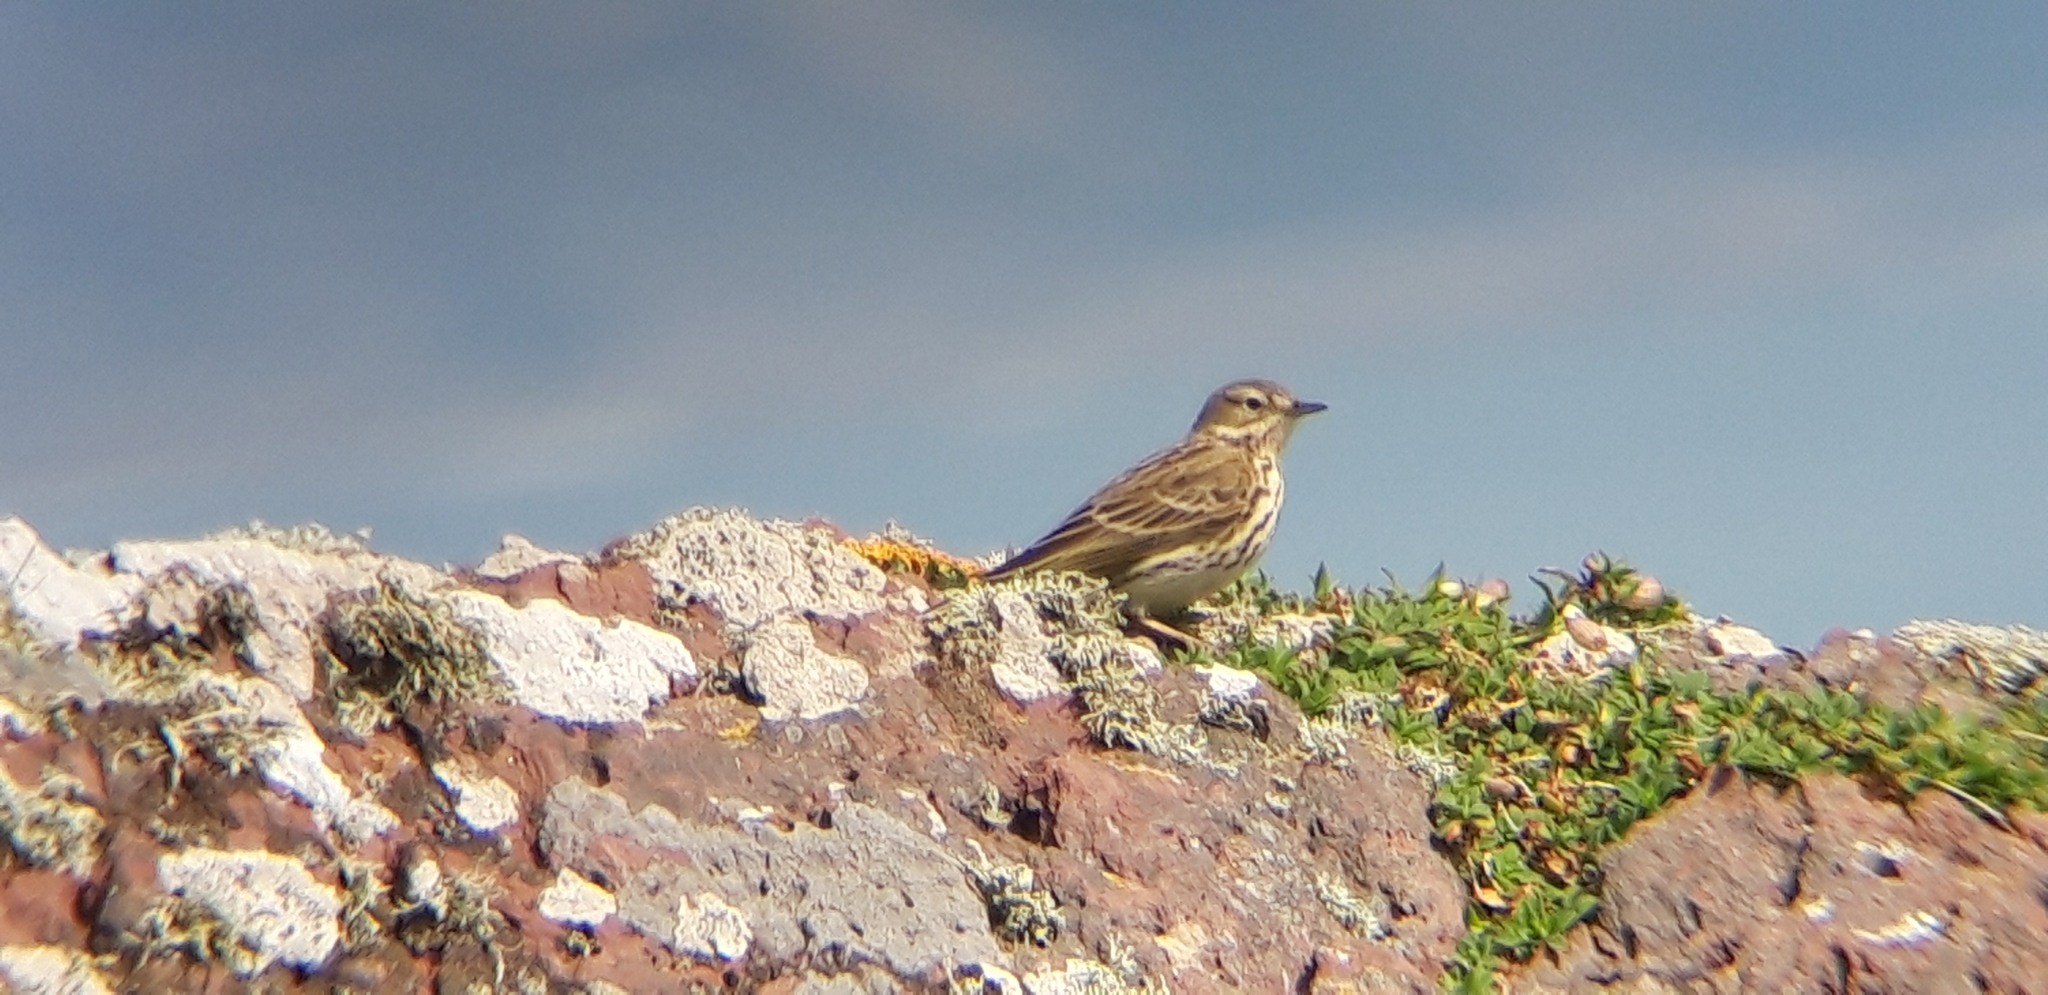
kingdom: Animalia
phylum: Chordata
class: Aves
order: Passeriformes
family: Motacillidae
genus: Anthus
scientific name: Anthus pratensis
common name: Meadow pipit
